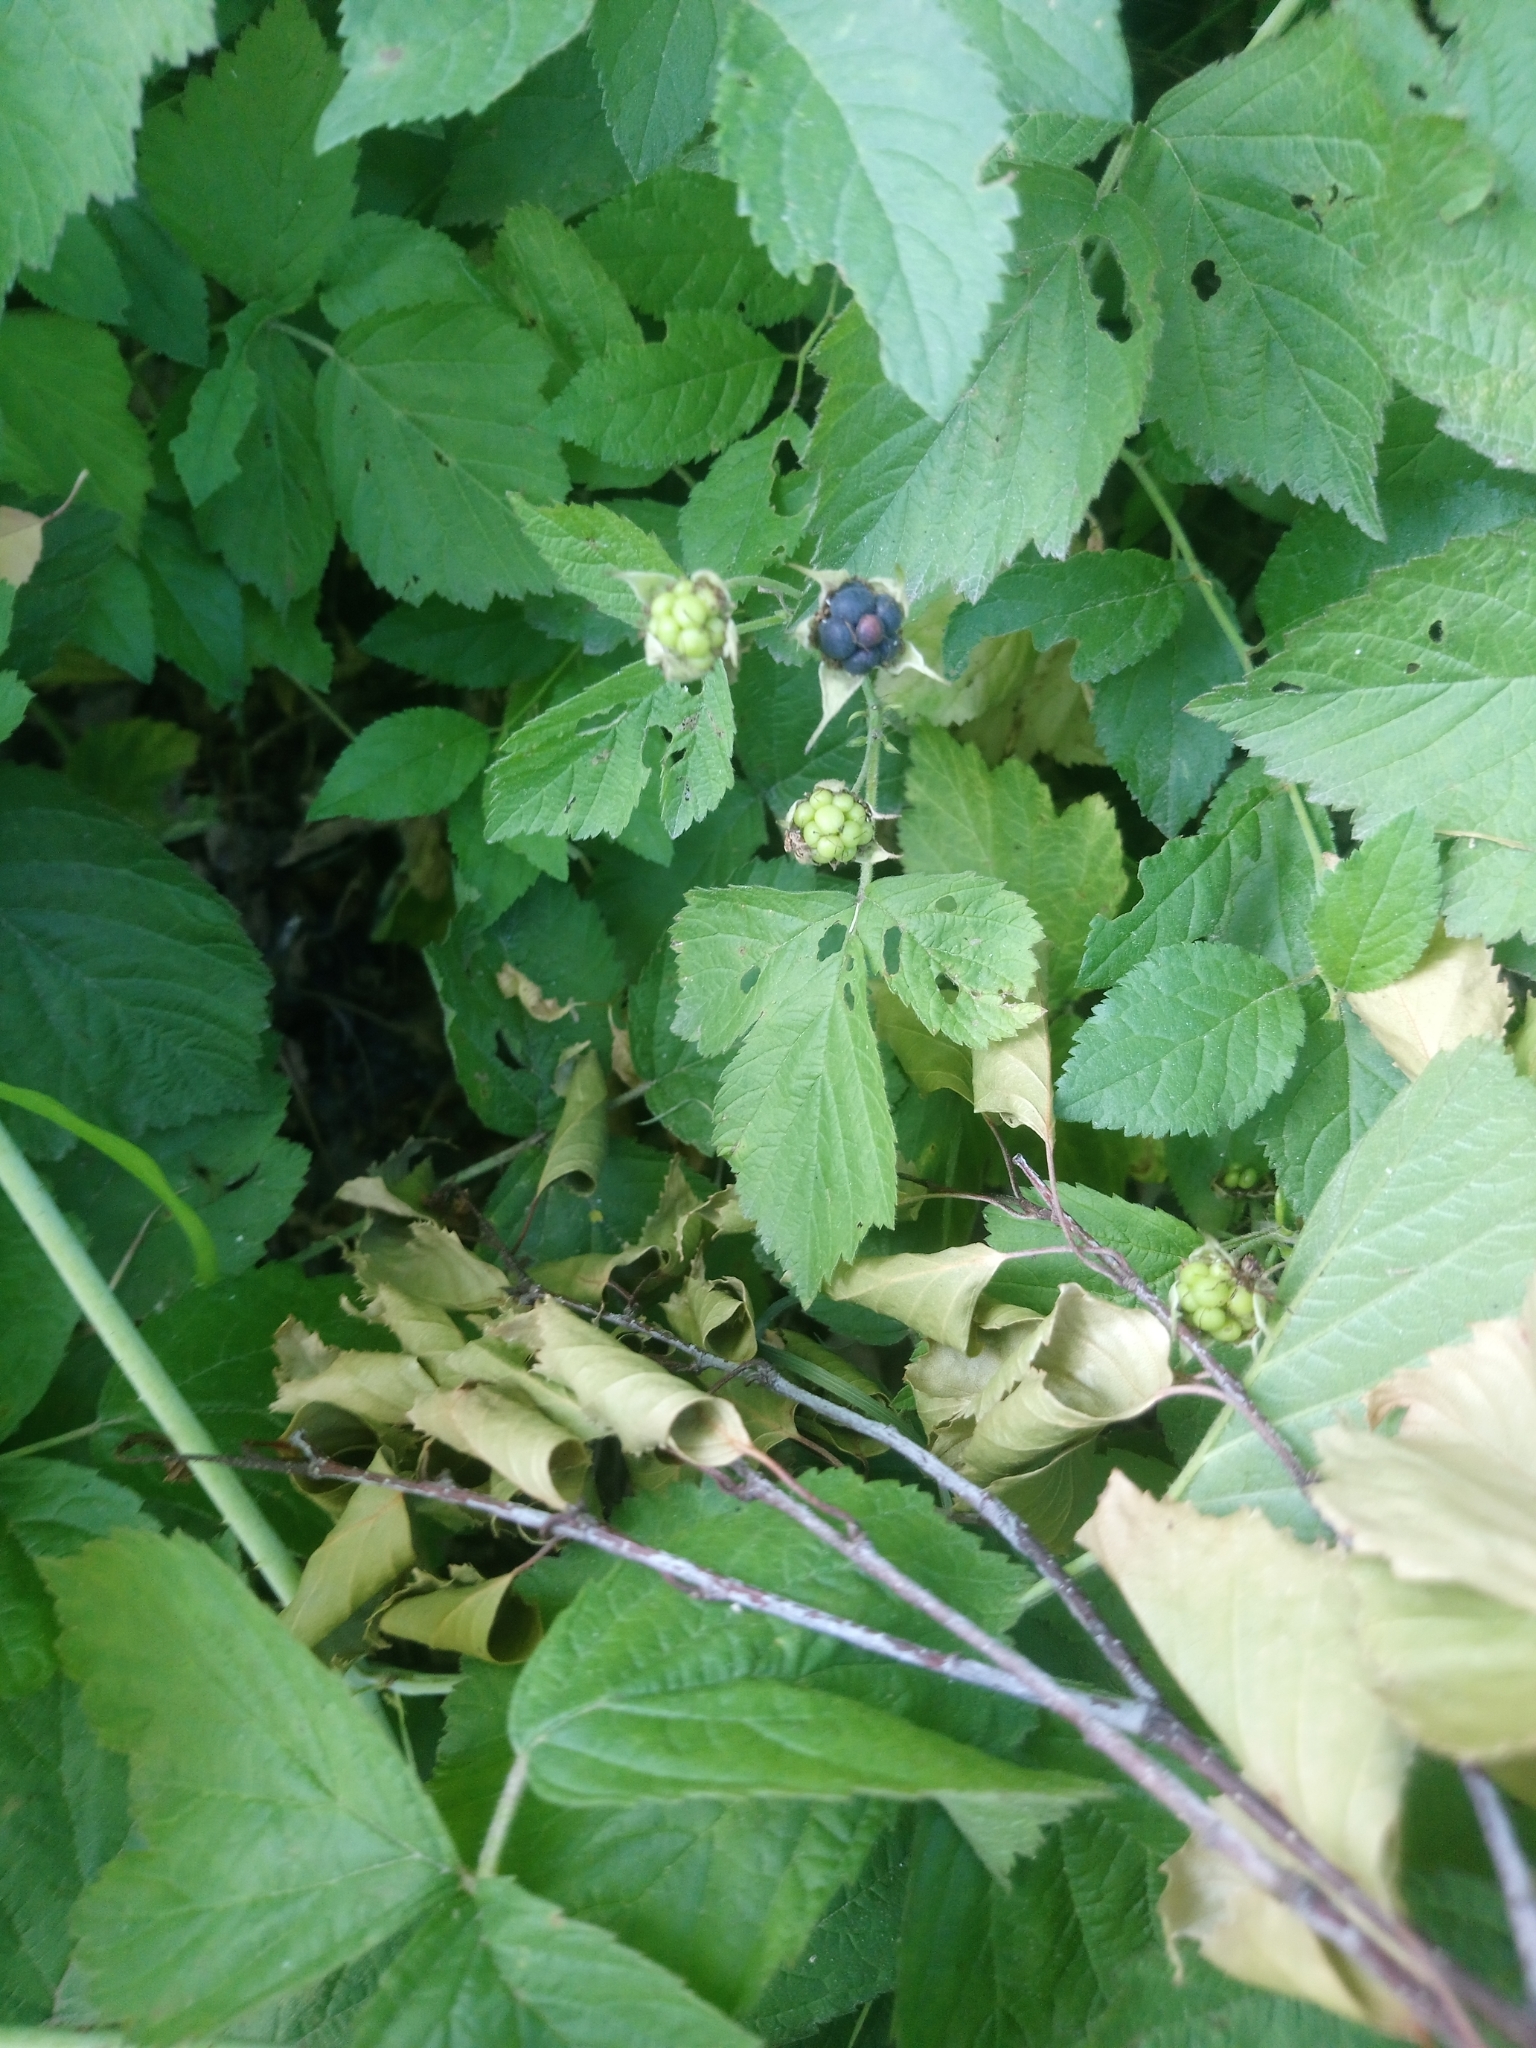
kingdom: Plantae
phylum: Tracheophyta
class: Magnoliopsida
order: Rosales
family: Rosaceae
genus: Rubus
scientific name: Rubus caesius
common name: Dewberry
